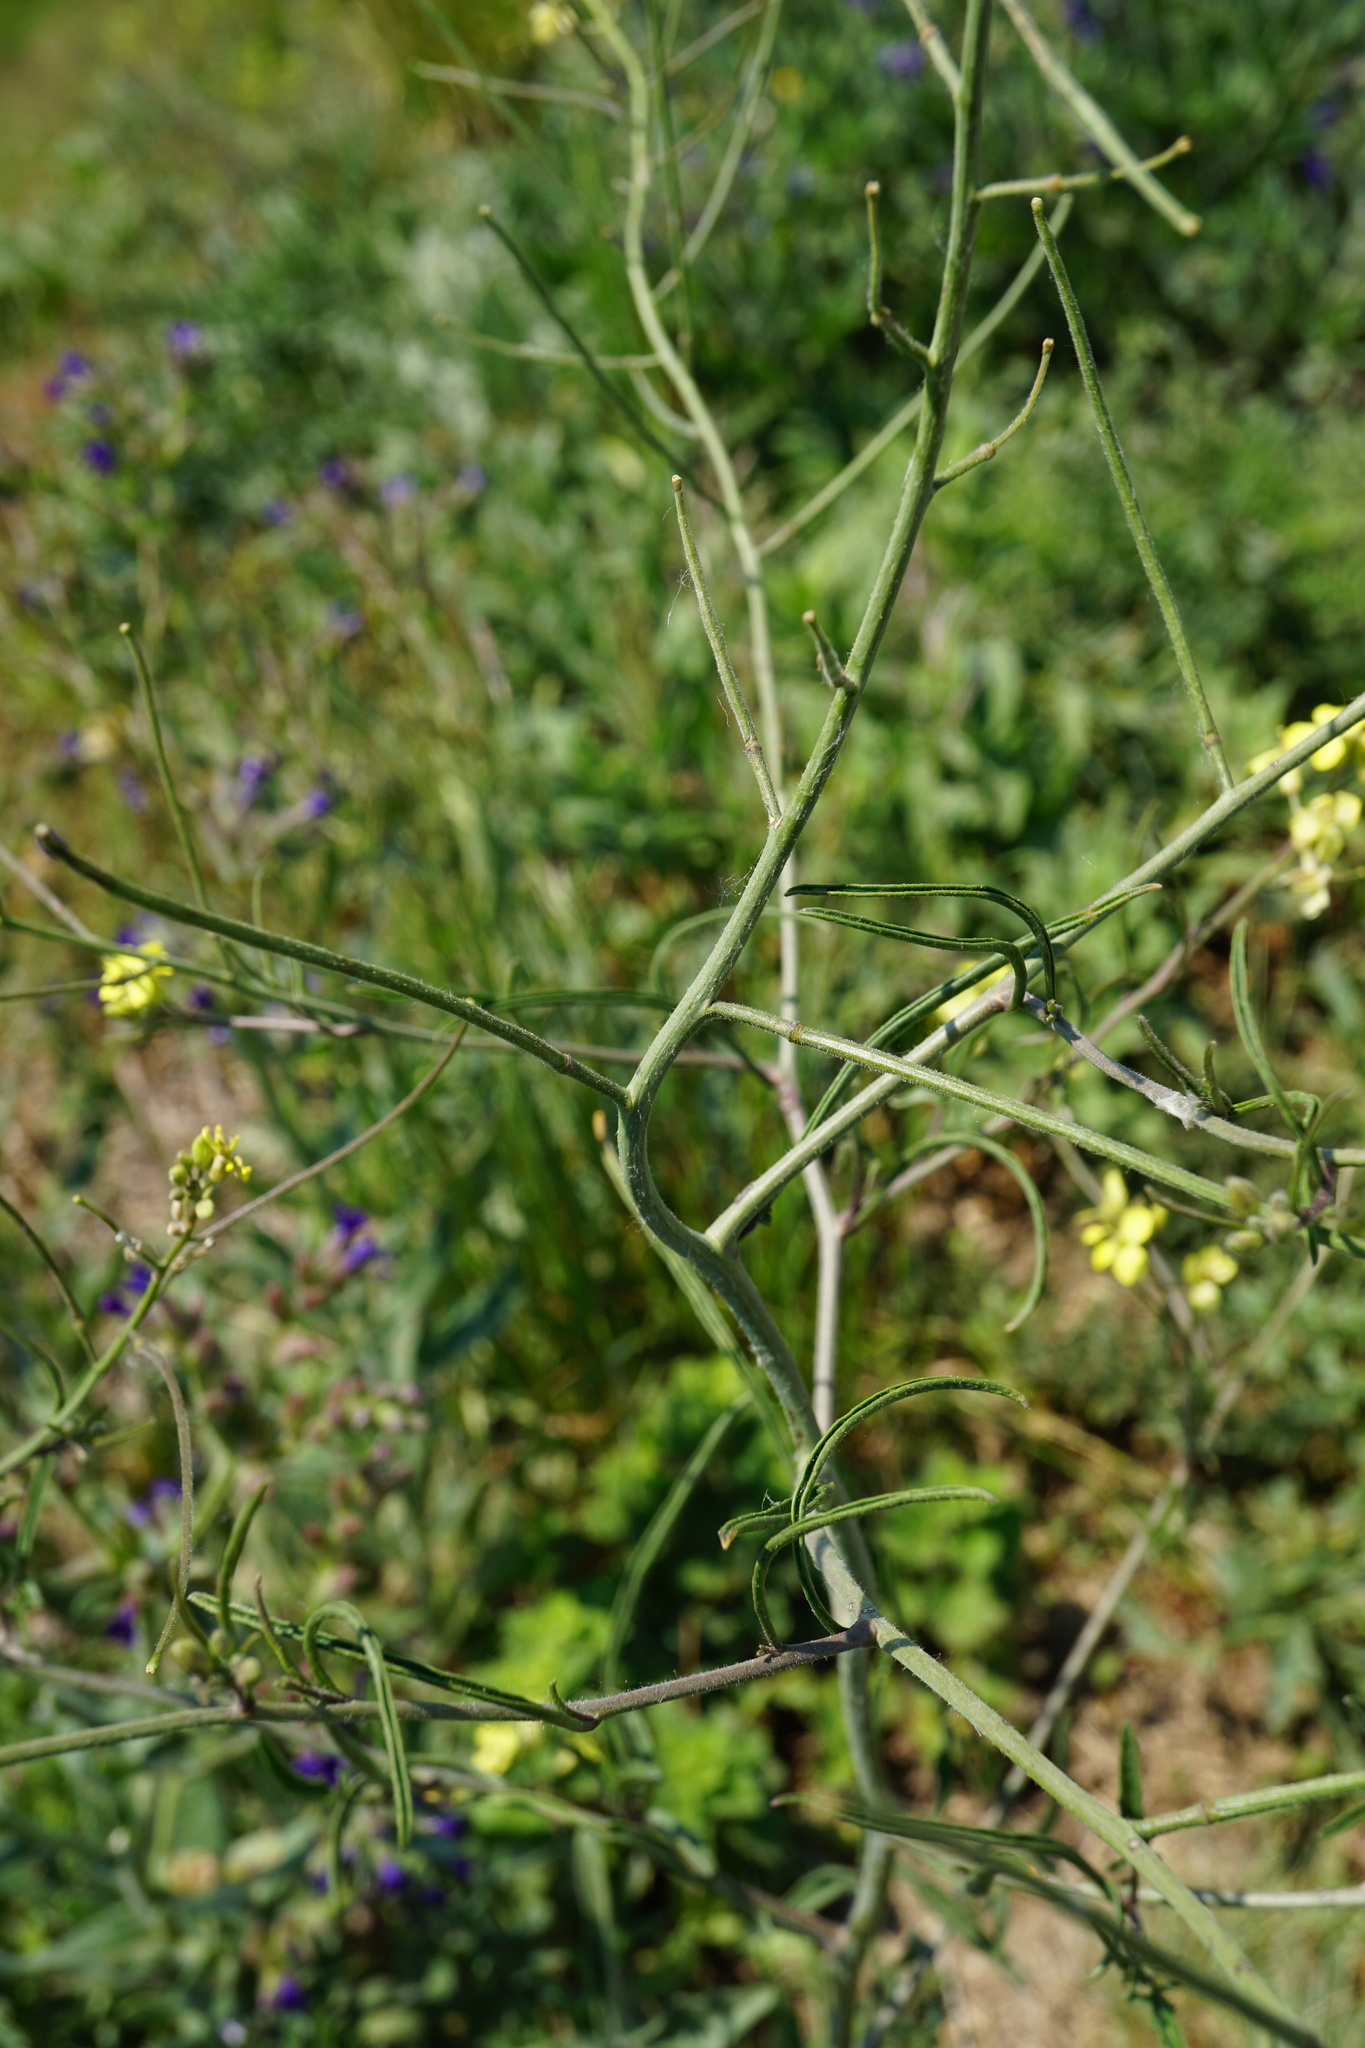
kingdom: Plantae
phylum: Tracheophyta
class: Magnoliopsida
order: Brassicales
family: Brassicaceae
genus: Sisymbrium
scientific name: Sisymbrium orientale
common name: Eastern rocket
